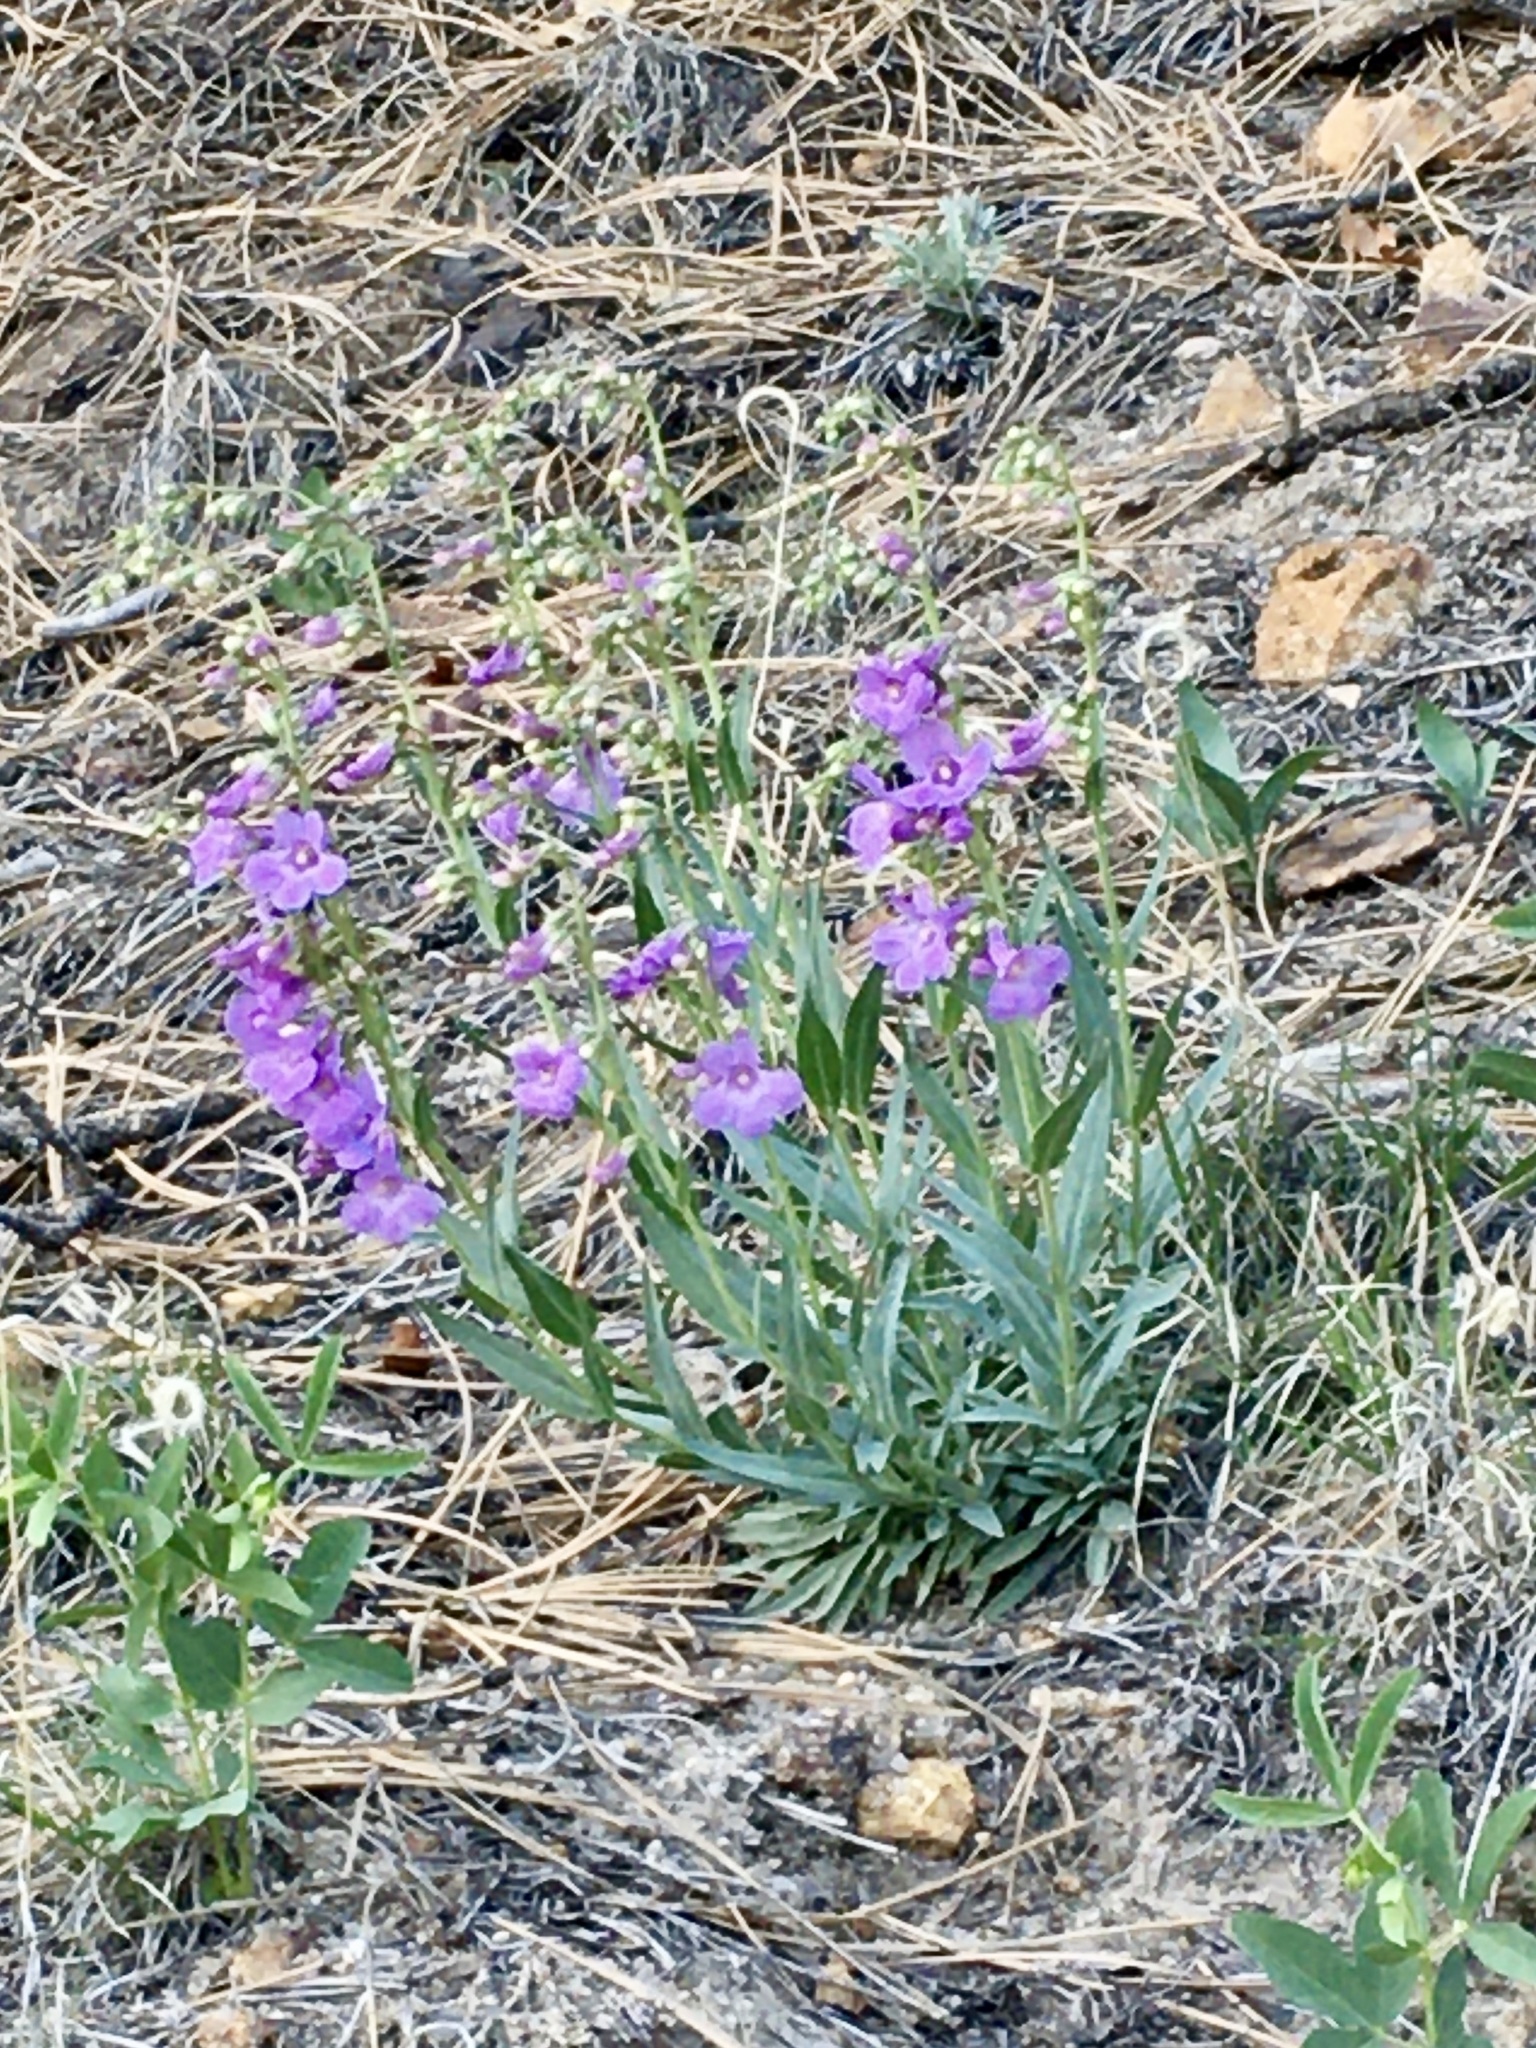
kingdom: Plantae
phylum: Tracheophyta
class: Magnoliopsida
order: Lamiales
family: Plantaginaceae
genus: Penstemon
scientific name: Penstemon secundiflorus
